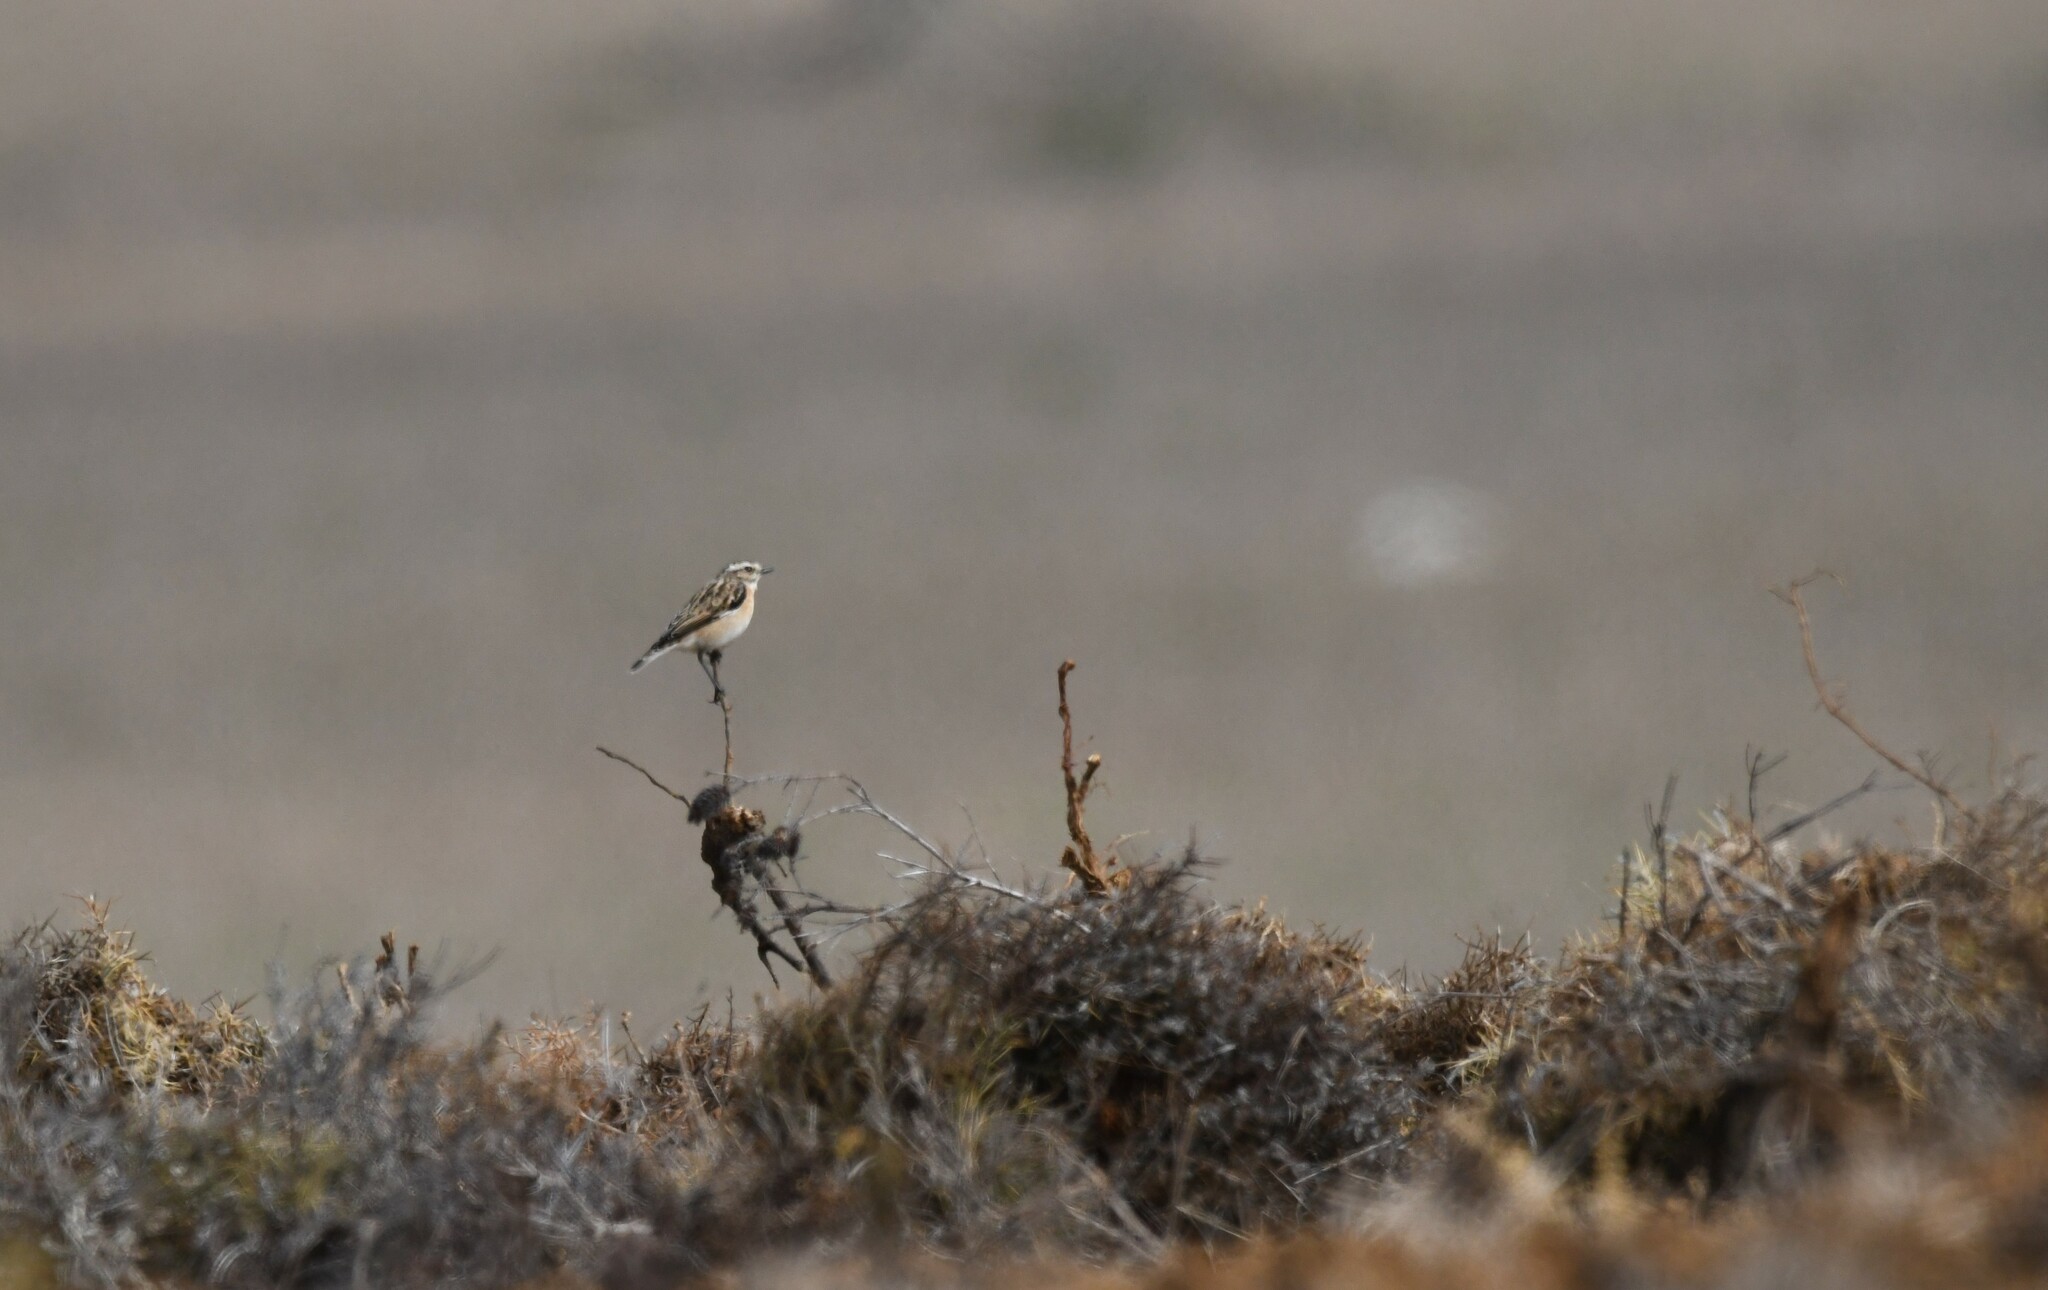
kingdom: Animalia
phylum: Chordata
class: Aves
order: Passeriformes
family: Muscicapidae
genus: Saxicola
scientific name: Saxicola rubetra
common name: Whinchat
